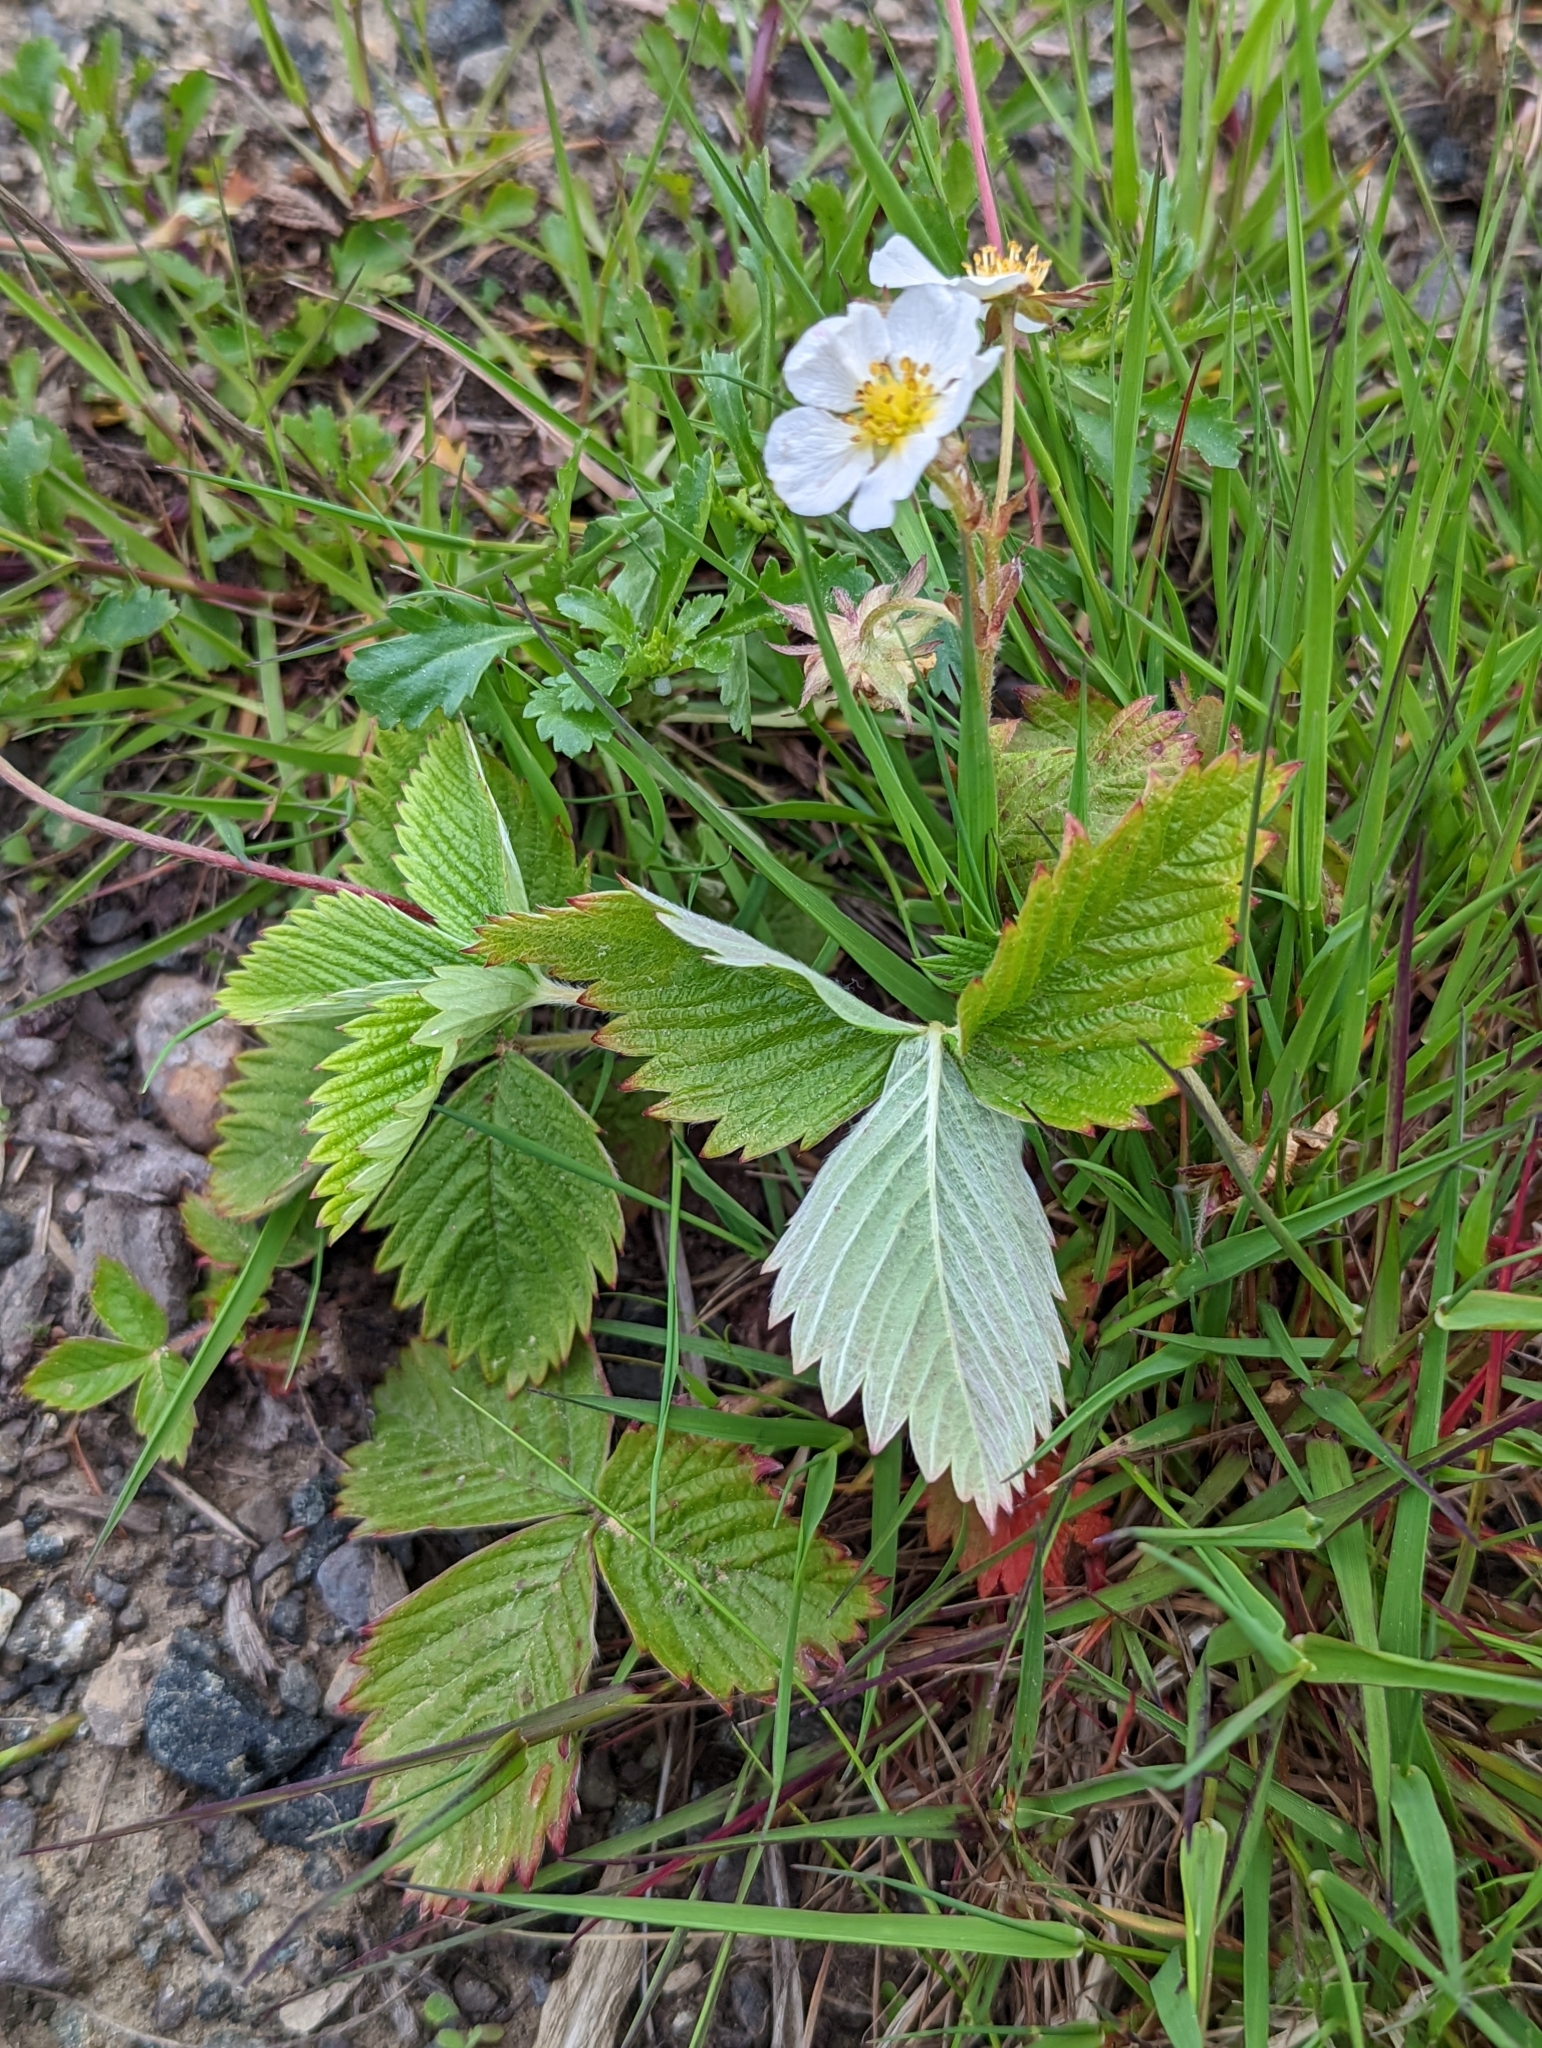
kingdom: Plantae
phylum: Tracheophyta
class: Magnoliopsida
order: Rosales
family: Rosaceae
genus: Fragaria
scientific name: Fragaria vesca
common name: Wild strawberry
